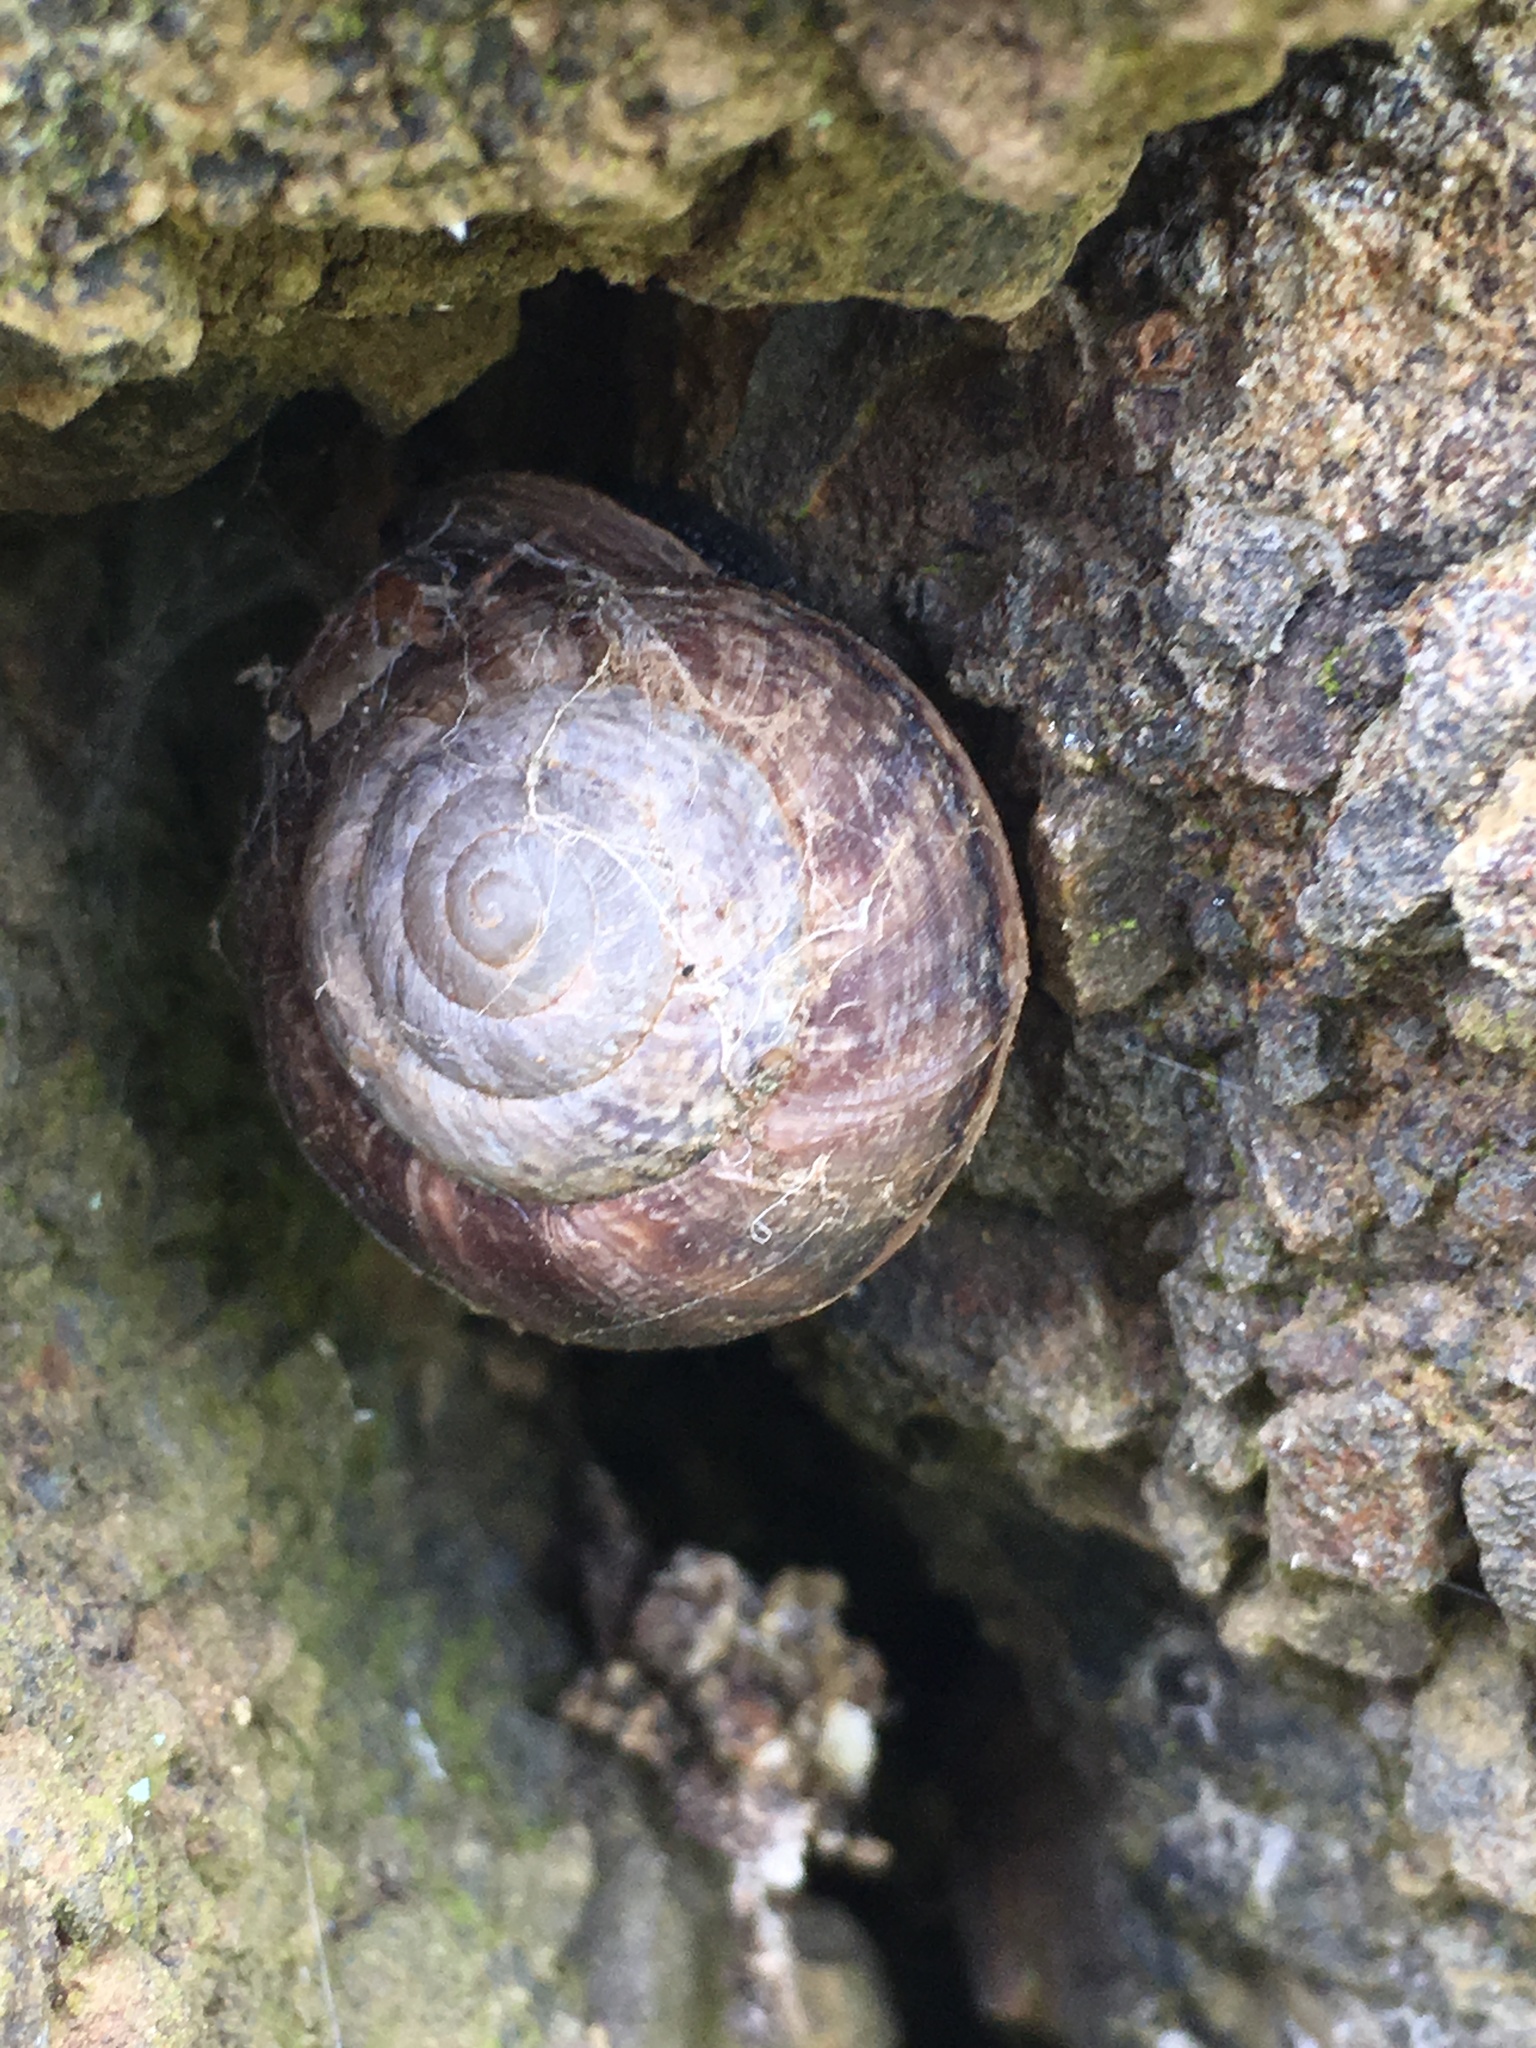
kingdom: Animalia
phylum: Mollusca
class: Gastropoda
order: Stylommatophora
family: Xanthonychidae
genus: Xerarionta
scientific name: Xerarionta tryoni
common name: Bicolor cactus snail
